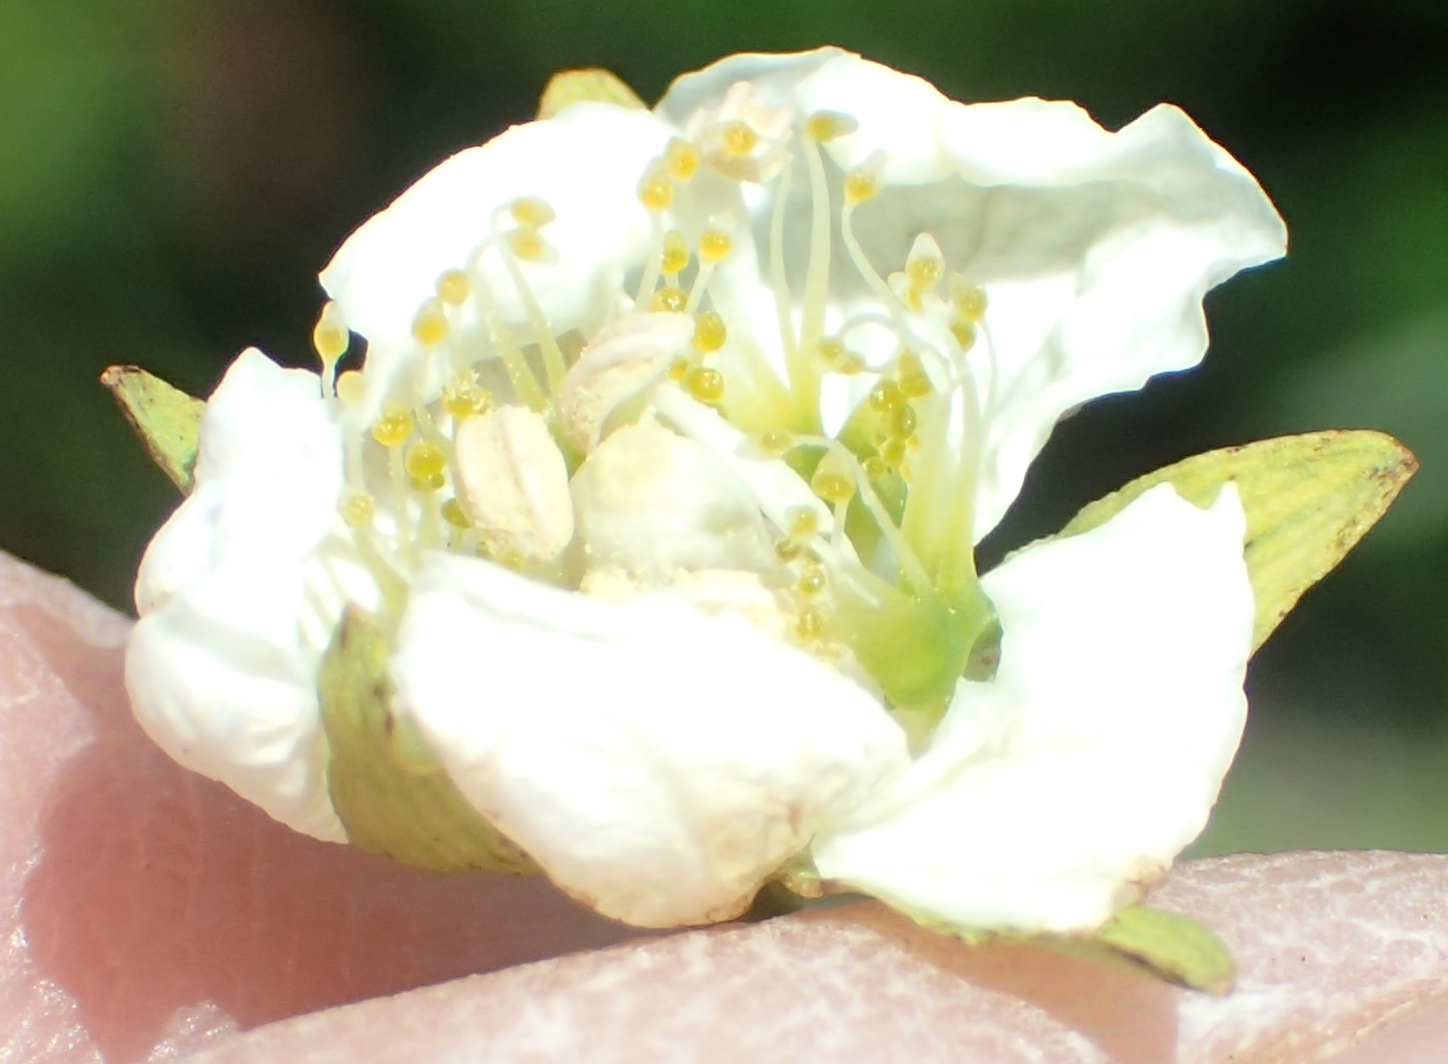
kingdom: Plantae
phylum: Tracheophyta
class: Magnoliopsida
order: Celastrales
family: Parnassiaceae
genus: Parnassia
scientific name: Parnassia palustris
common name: Grass-of-parnassus
